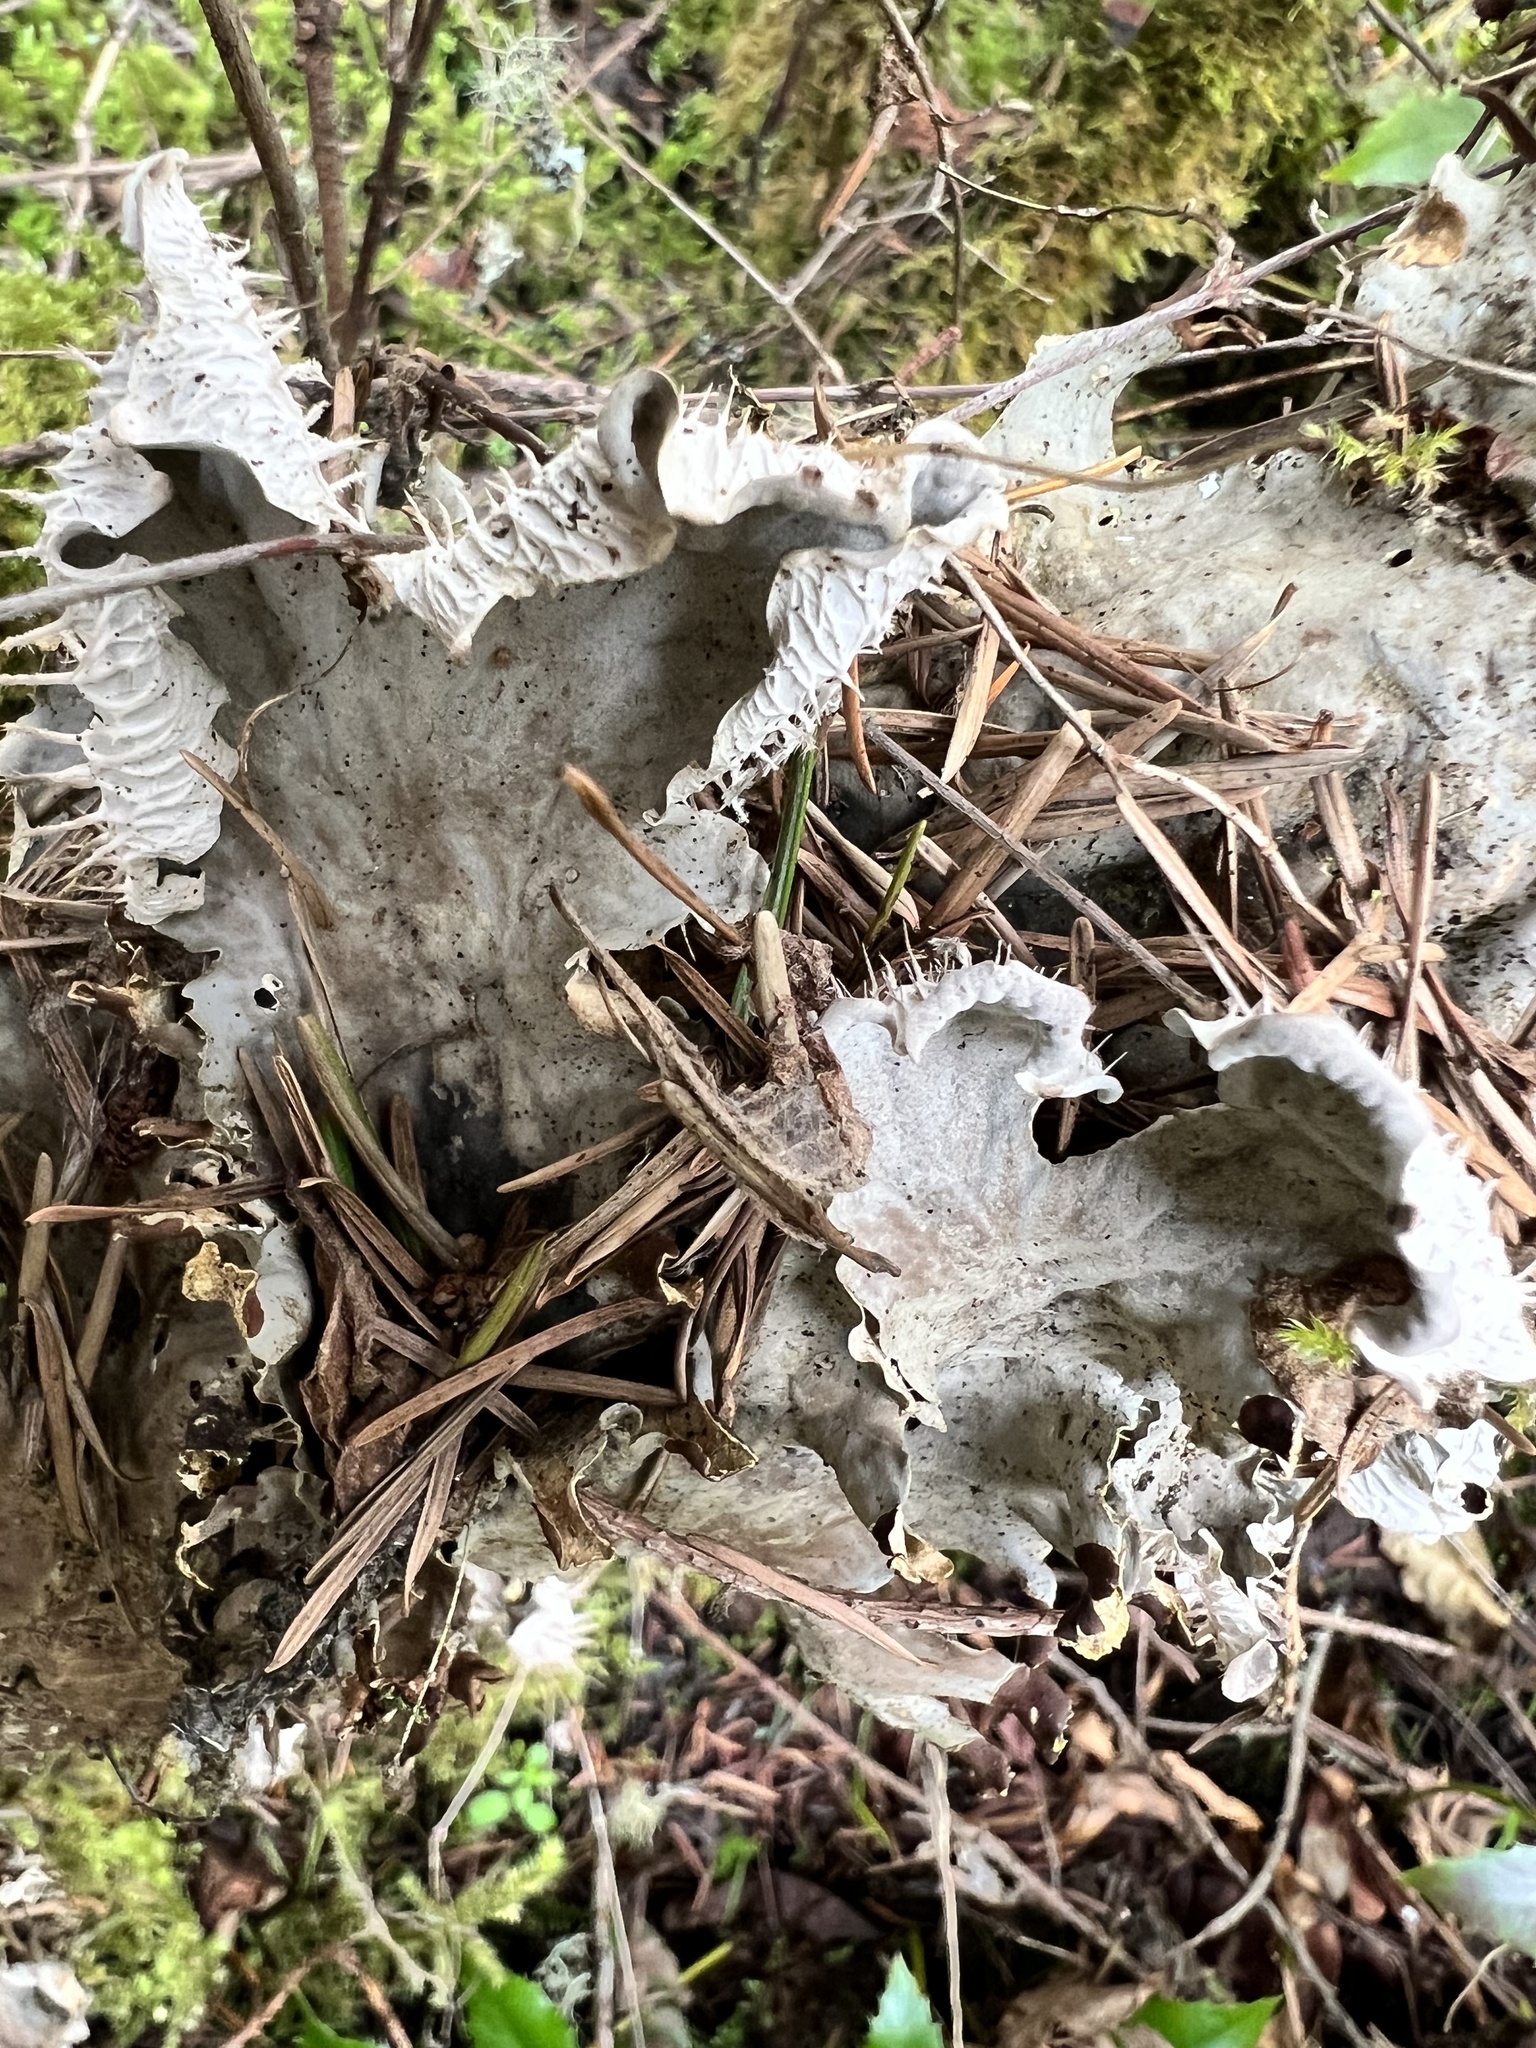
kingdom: Fungi
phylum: Ascomycota
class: Lecanoromycetes
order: Peltigerales
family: Peltigeraceae
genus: Peltigera
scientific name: Peltigera membranacea
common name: Membranous pelt lichen
